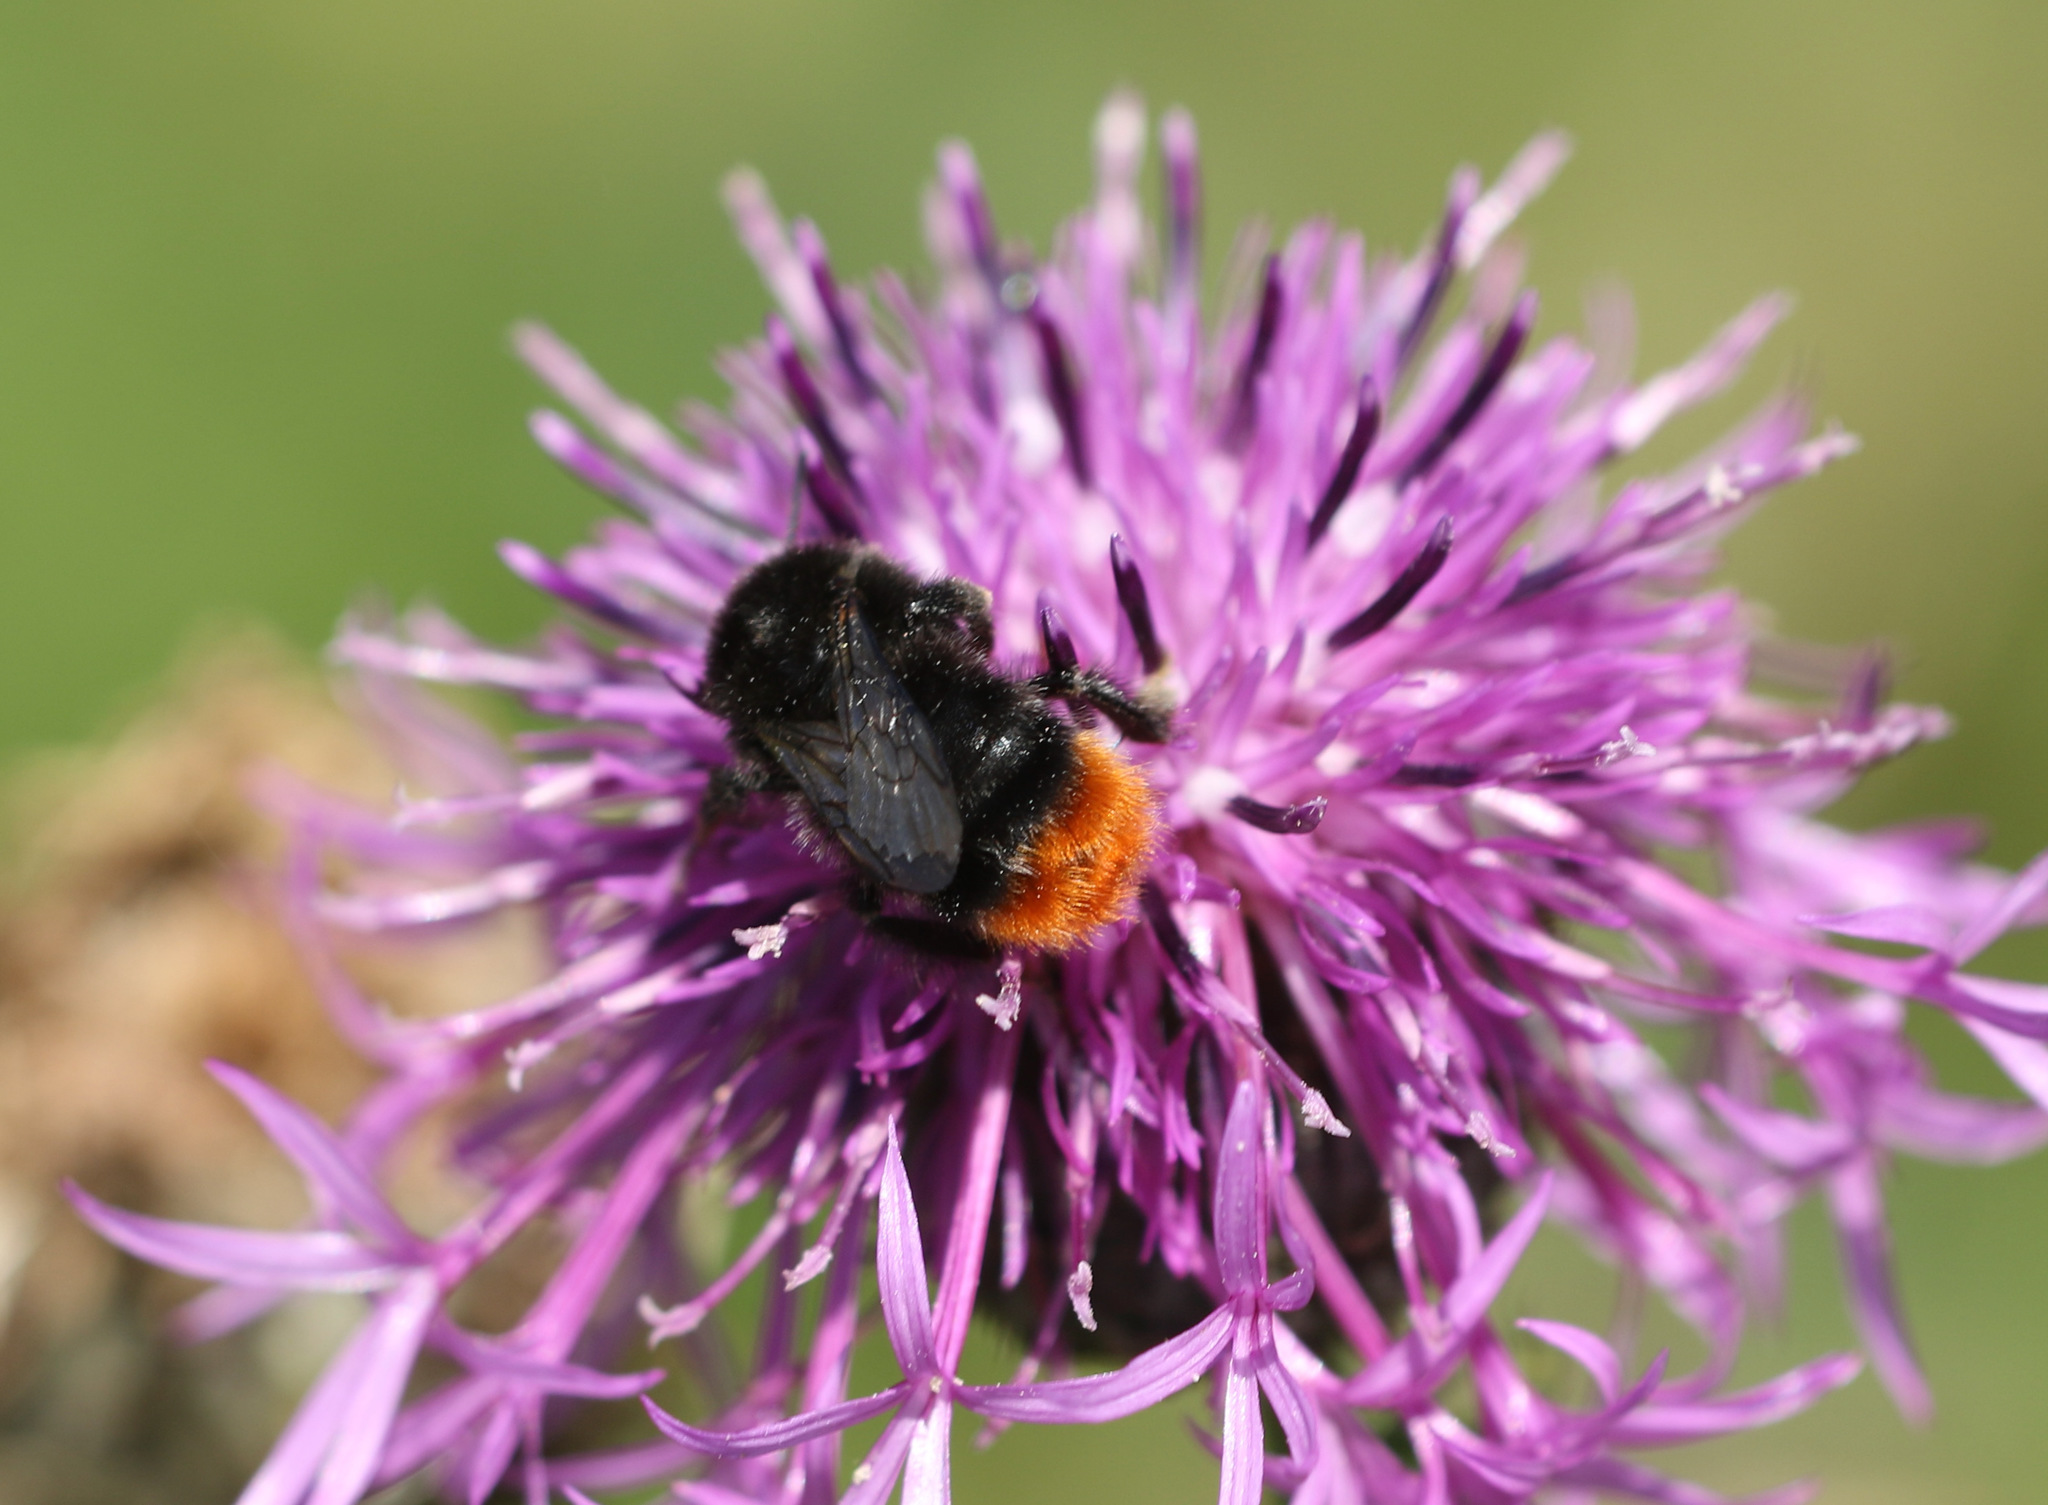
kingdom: Animalia
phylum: Arthropoda
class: Insecta
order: Hymenoptera
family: Apidae
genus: Bombus
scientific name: Bombus lapidarius
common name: Large red-tailed humble-bee
